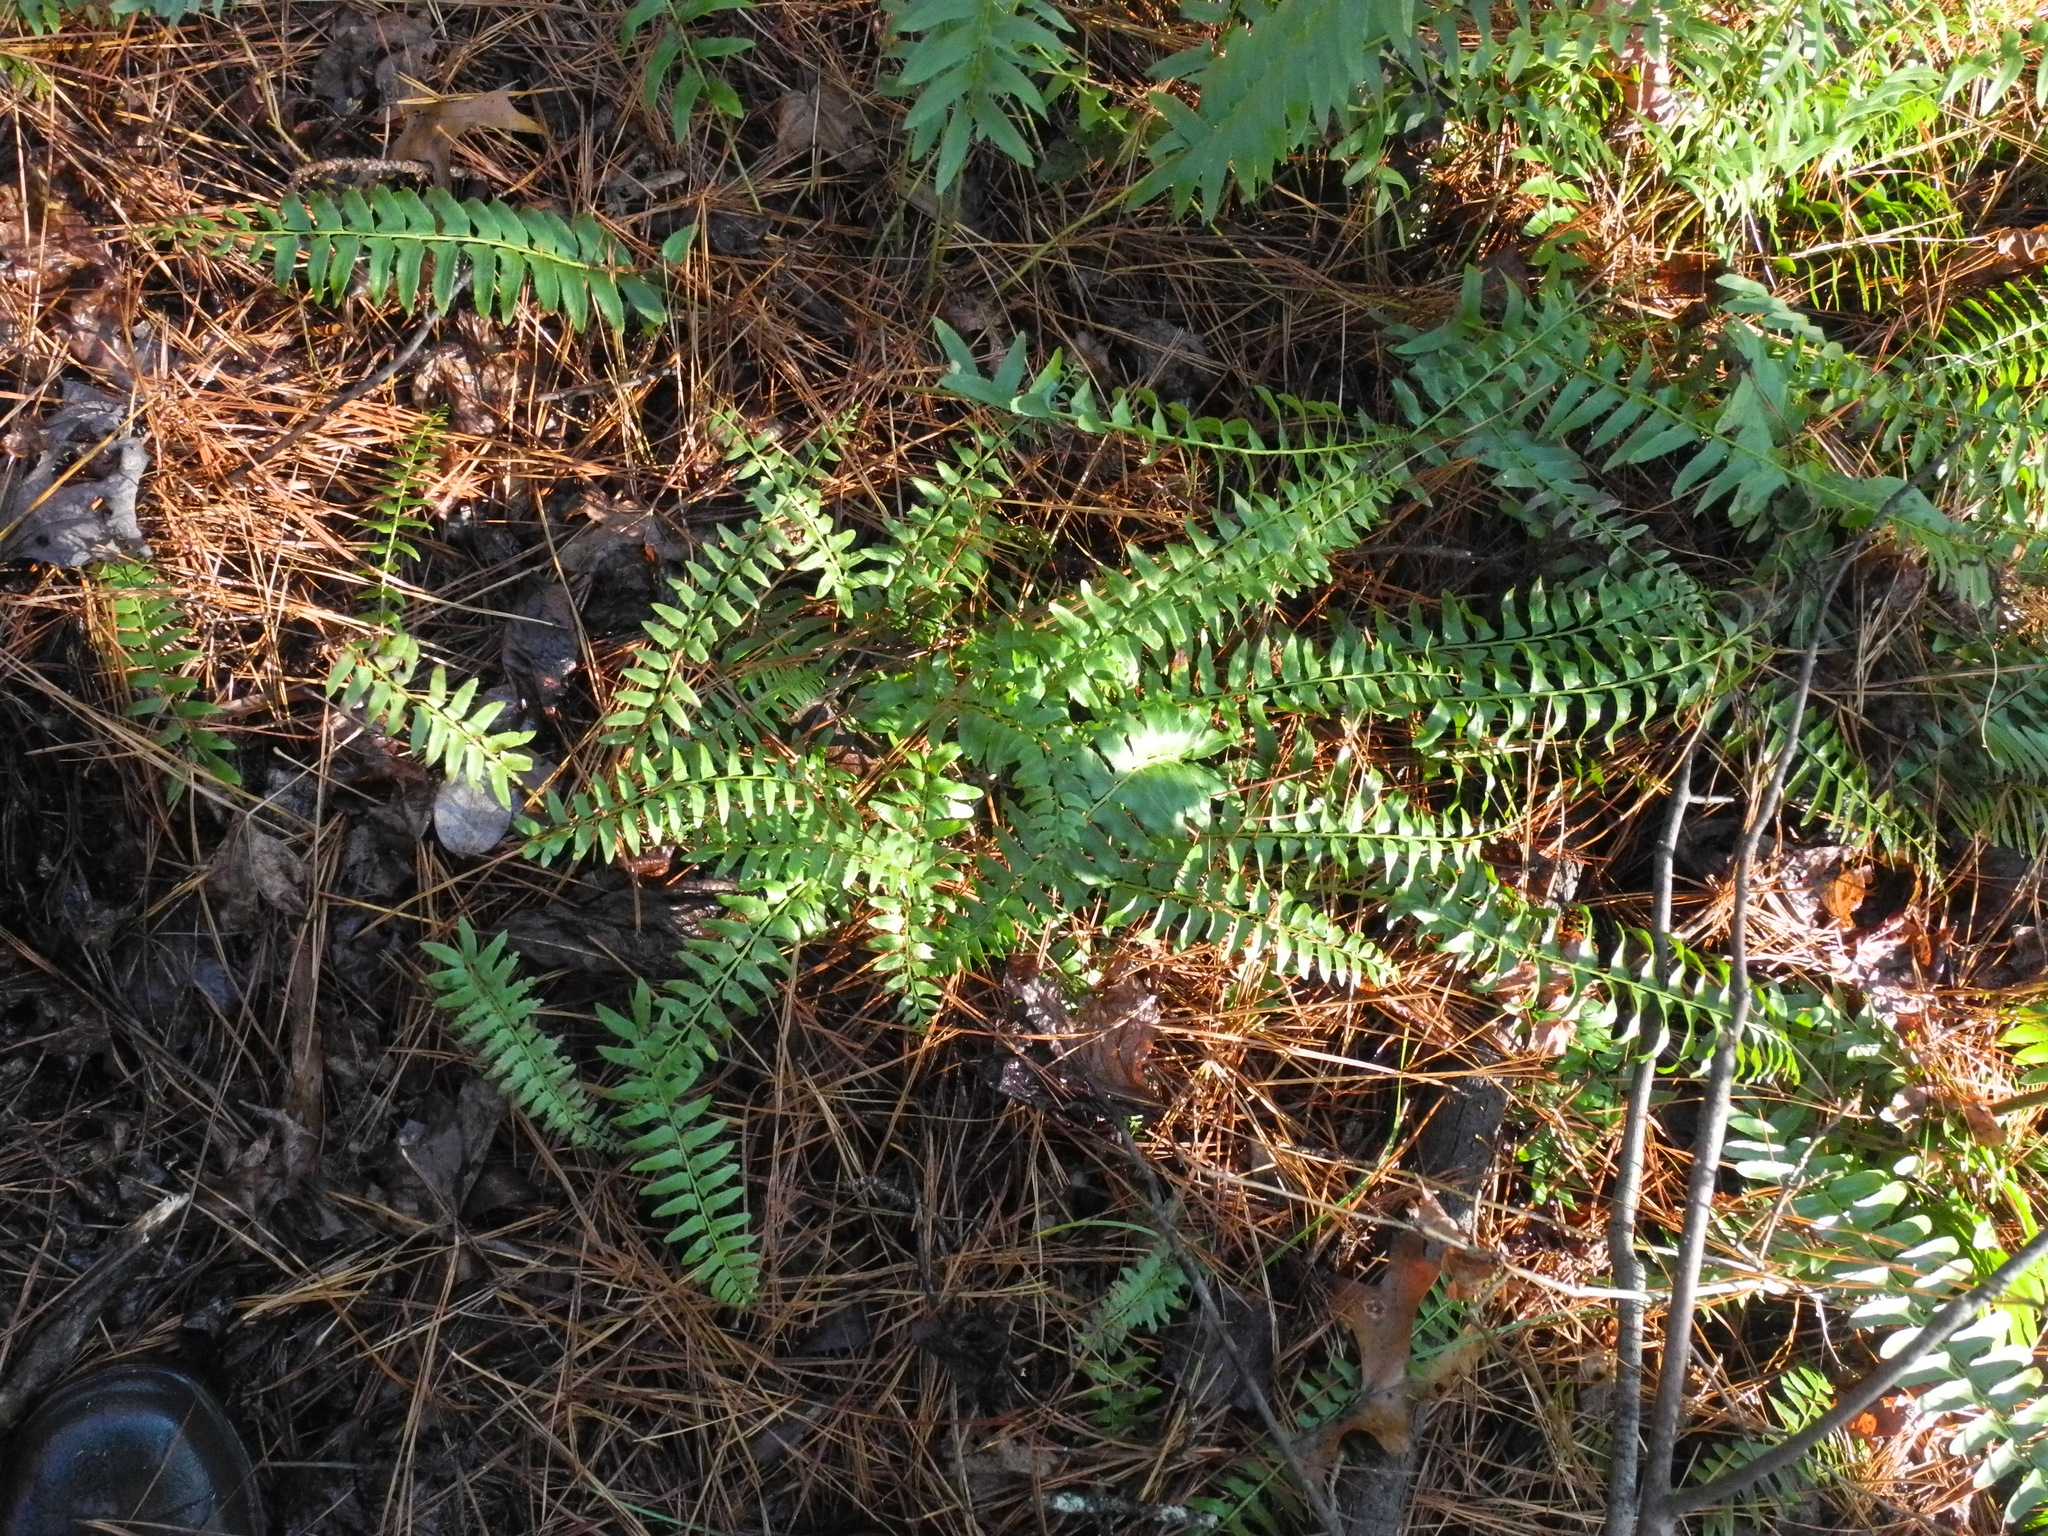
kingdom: Plantae
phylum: Tracheophyta
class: Polypodiopsida
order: Polypodiales
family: Dryopteridaceae
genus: Polystichum
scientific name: Polystichum acrostichoides
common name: Christmas fern
